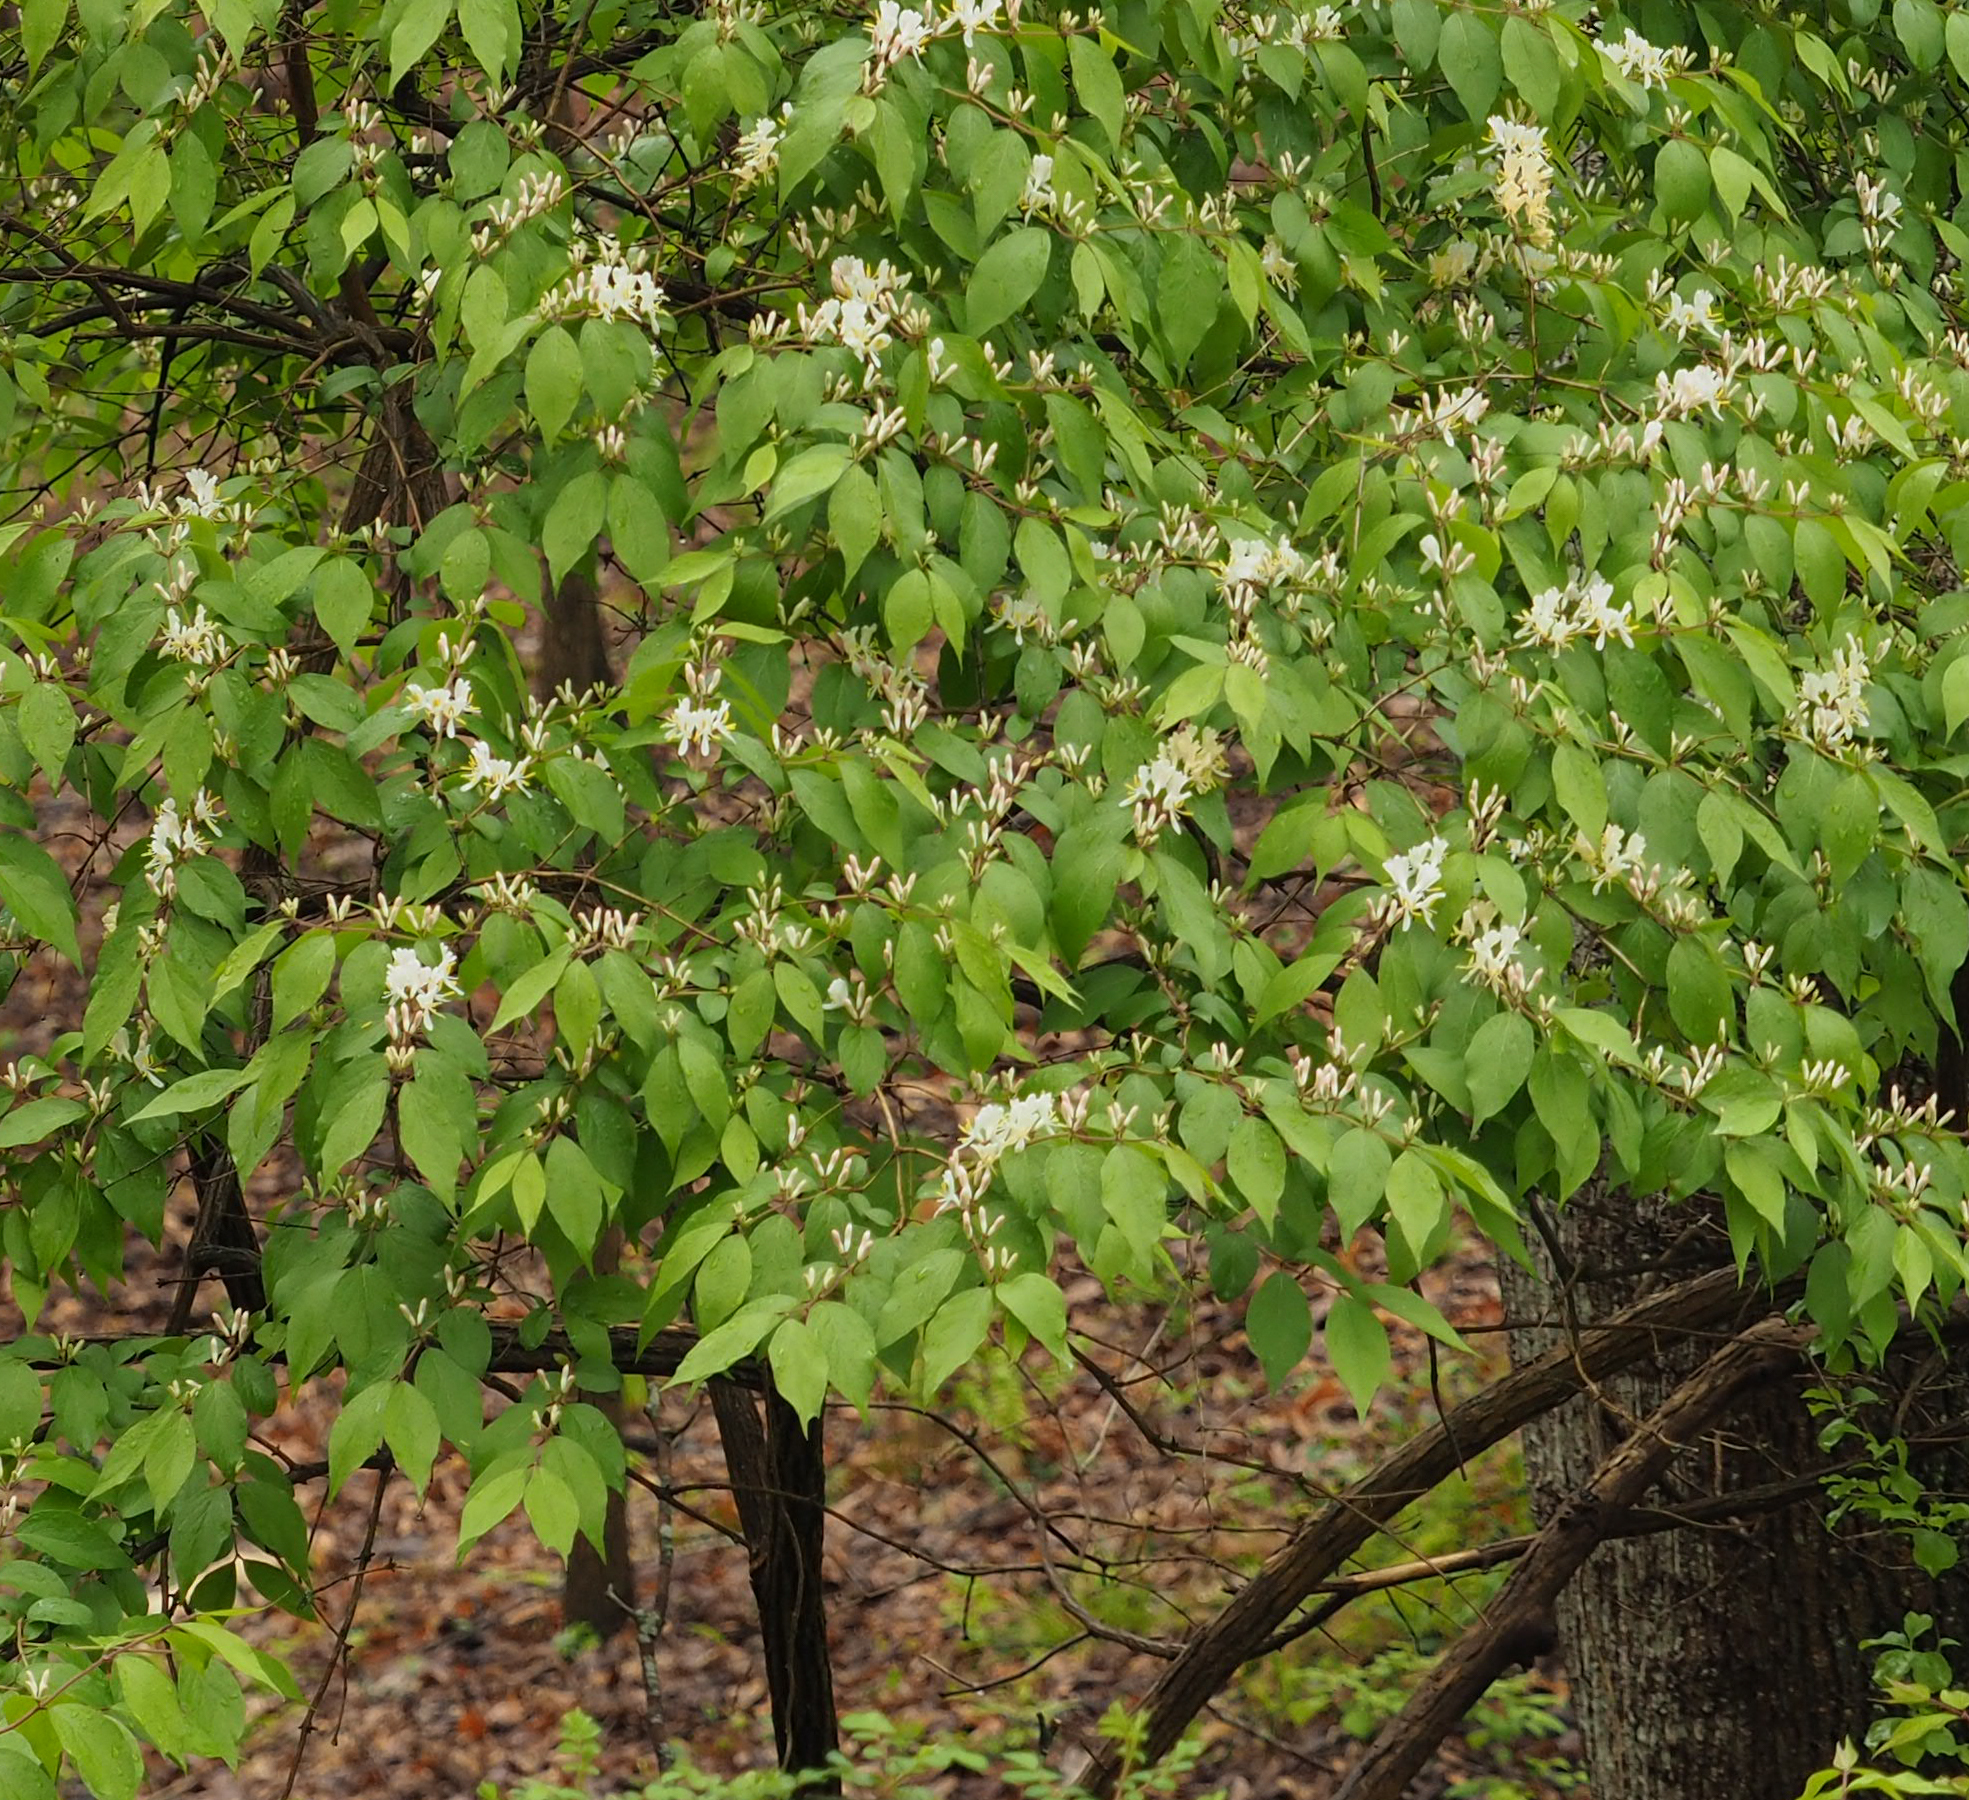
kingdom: Plantae
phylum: Tracheophyta
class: Magnoliopsida
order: Dipsacales
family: Caprifoliaceae
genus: Lonicera
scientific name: Lonicera maackii
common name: Amur honeysuckle
